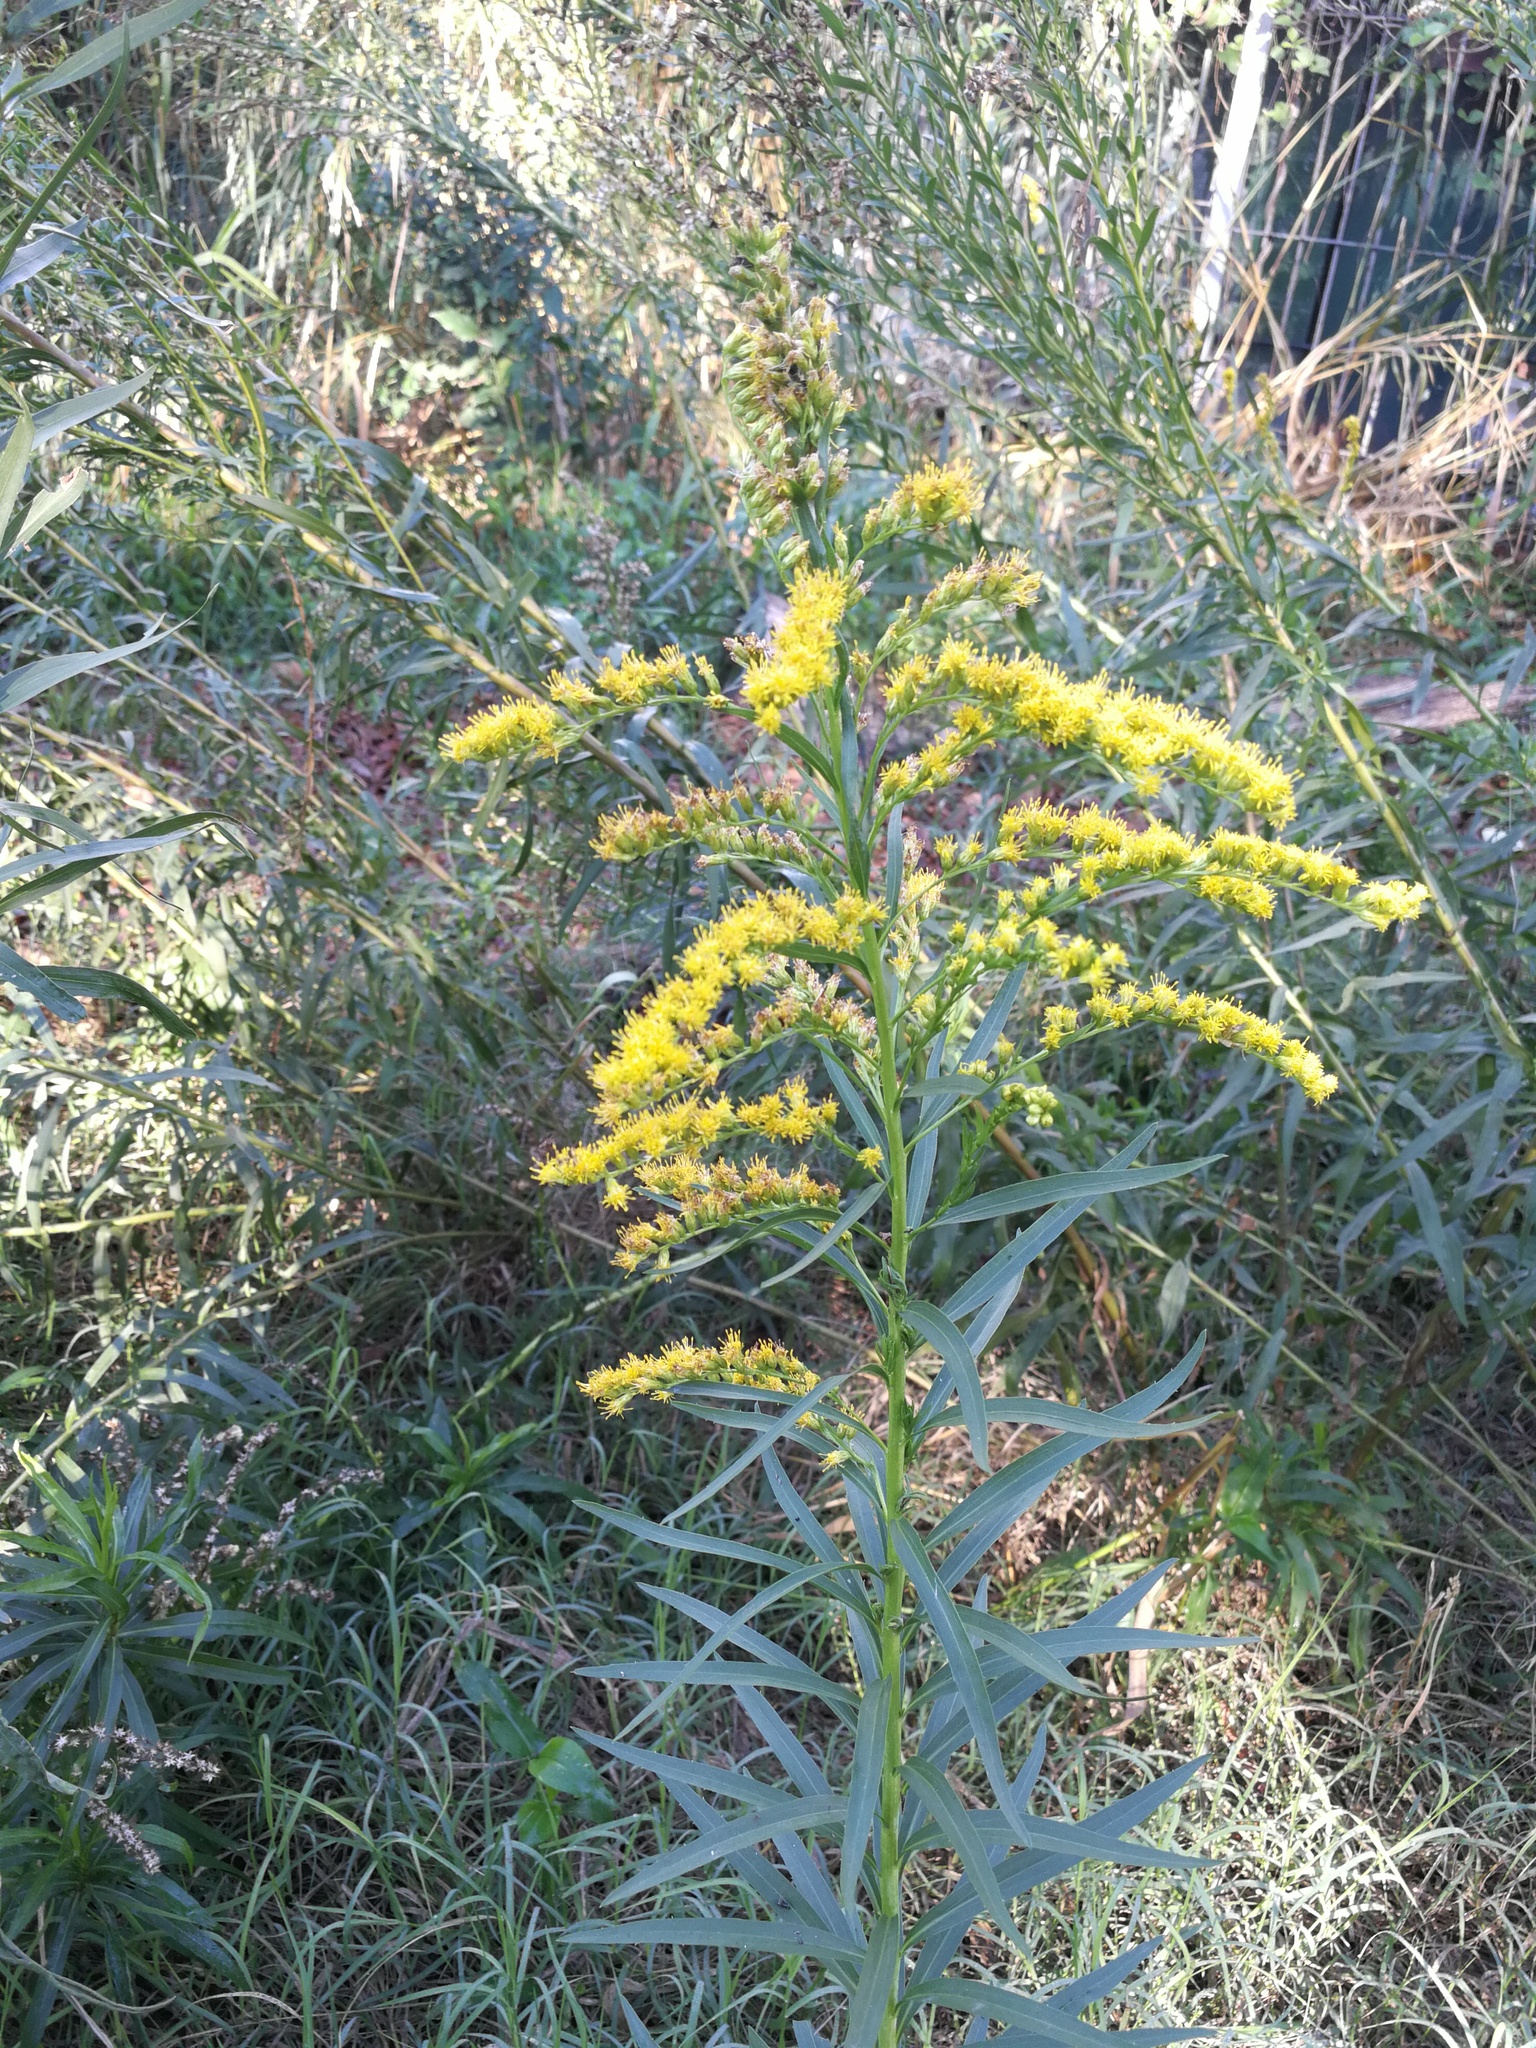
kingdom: Plantae
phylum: Tracheophyta
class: Magnoliopsida
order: Asterales
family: Asteraceae
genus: Solidago
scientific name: Solidago chilensis
